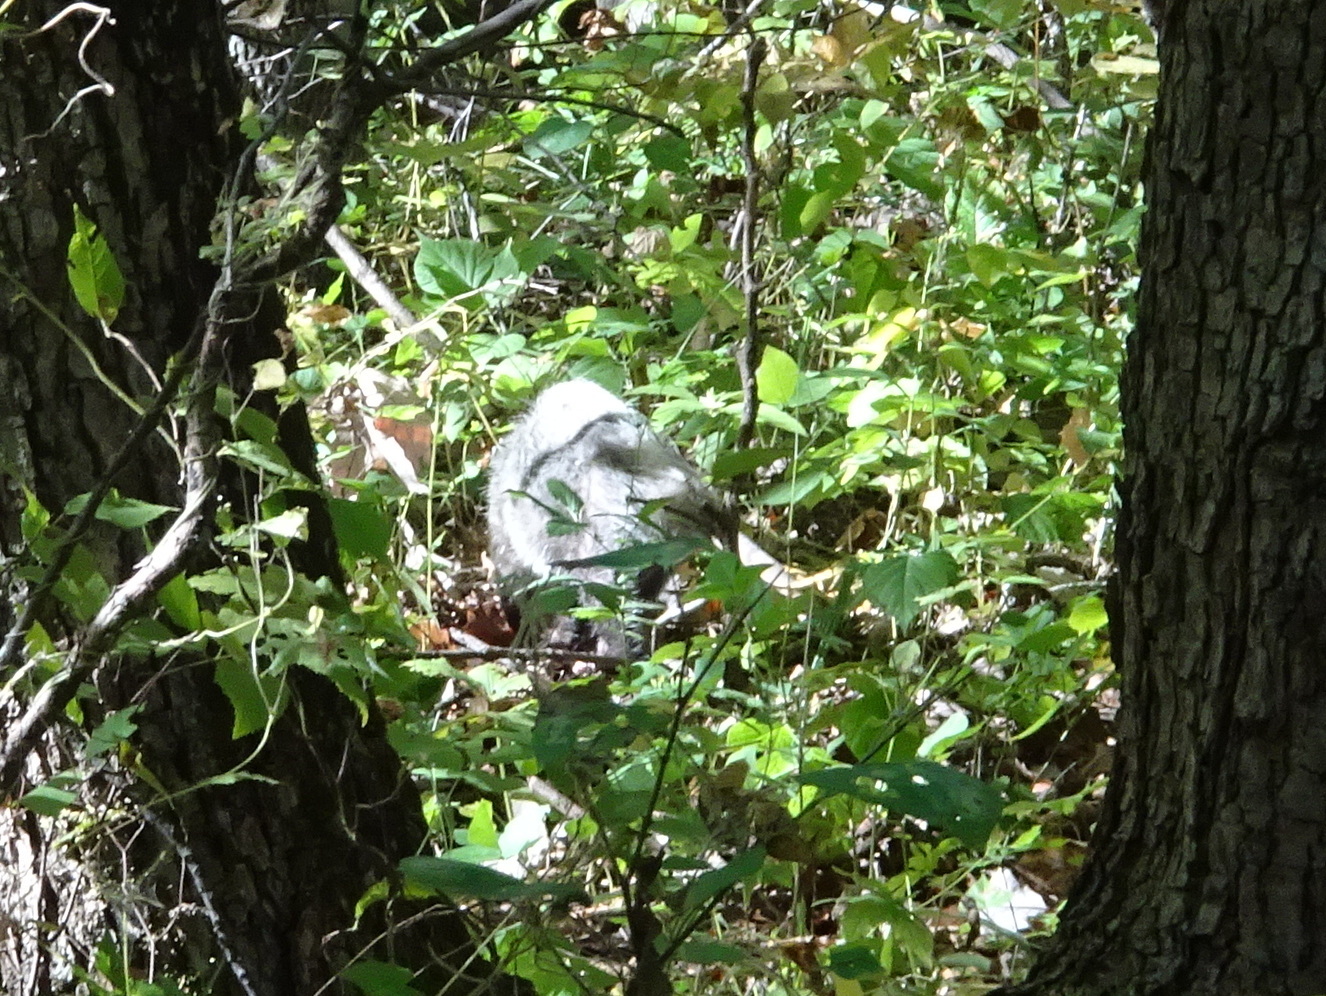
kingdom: Animalia
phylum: Chordata
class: Mammalia
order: Didelphimorphia
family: Didelphidae
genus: Didelphis
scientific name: Didelphis virginiana
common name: Virginia opossum
